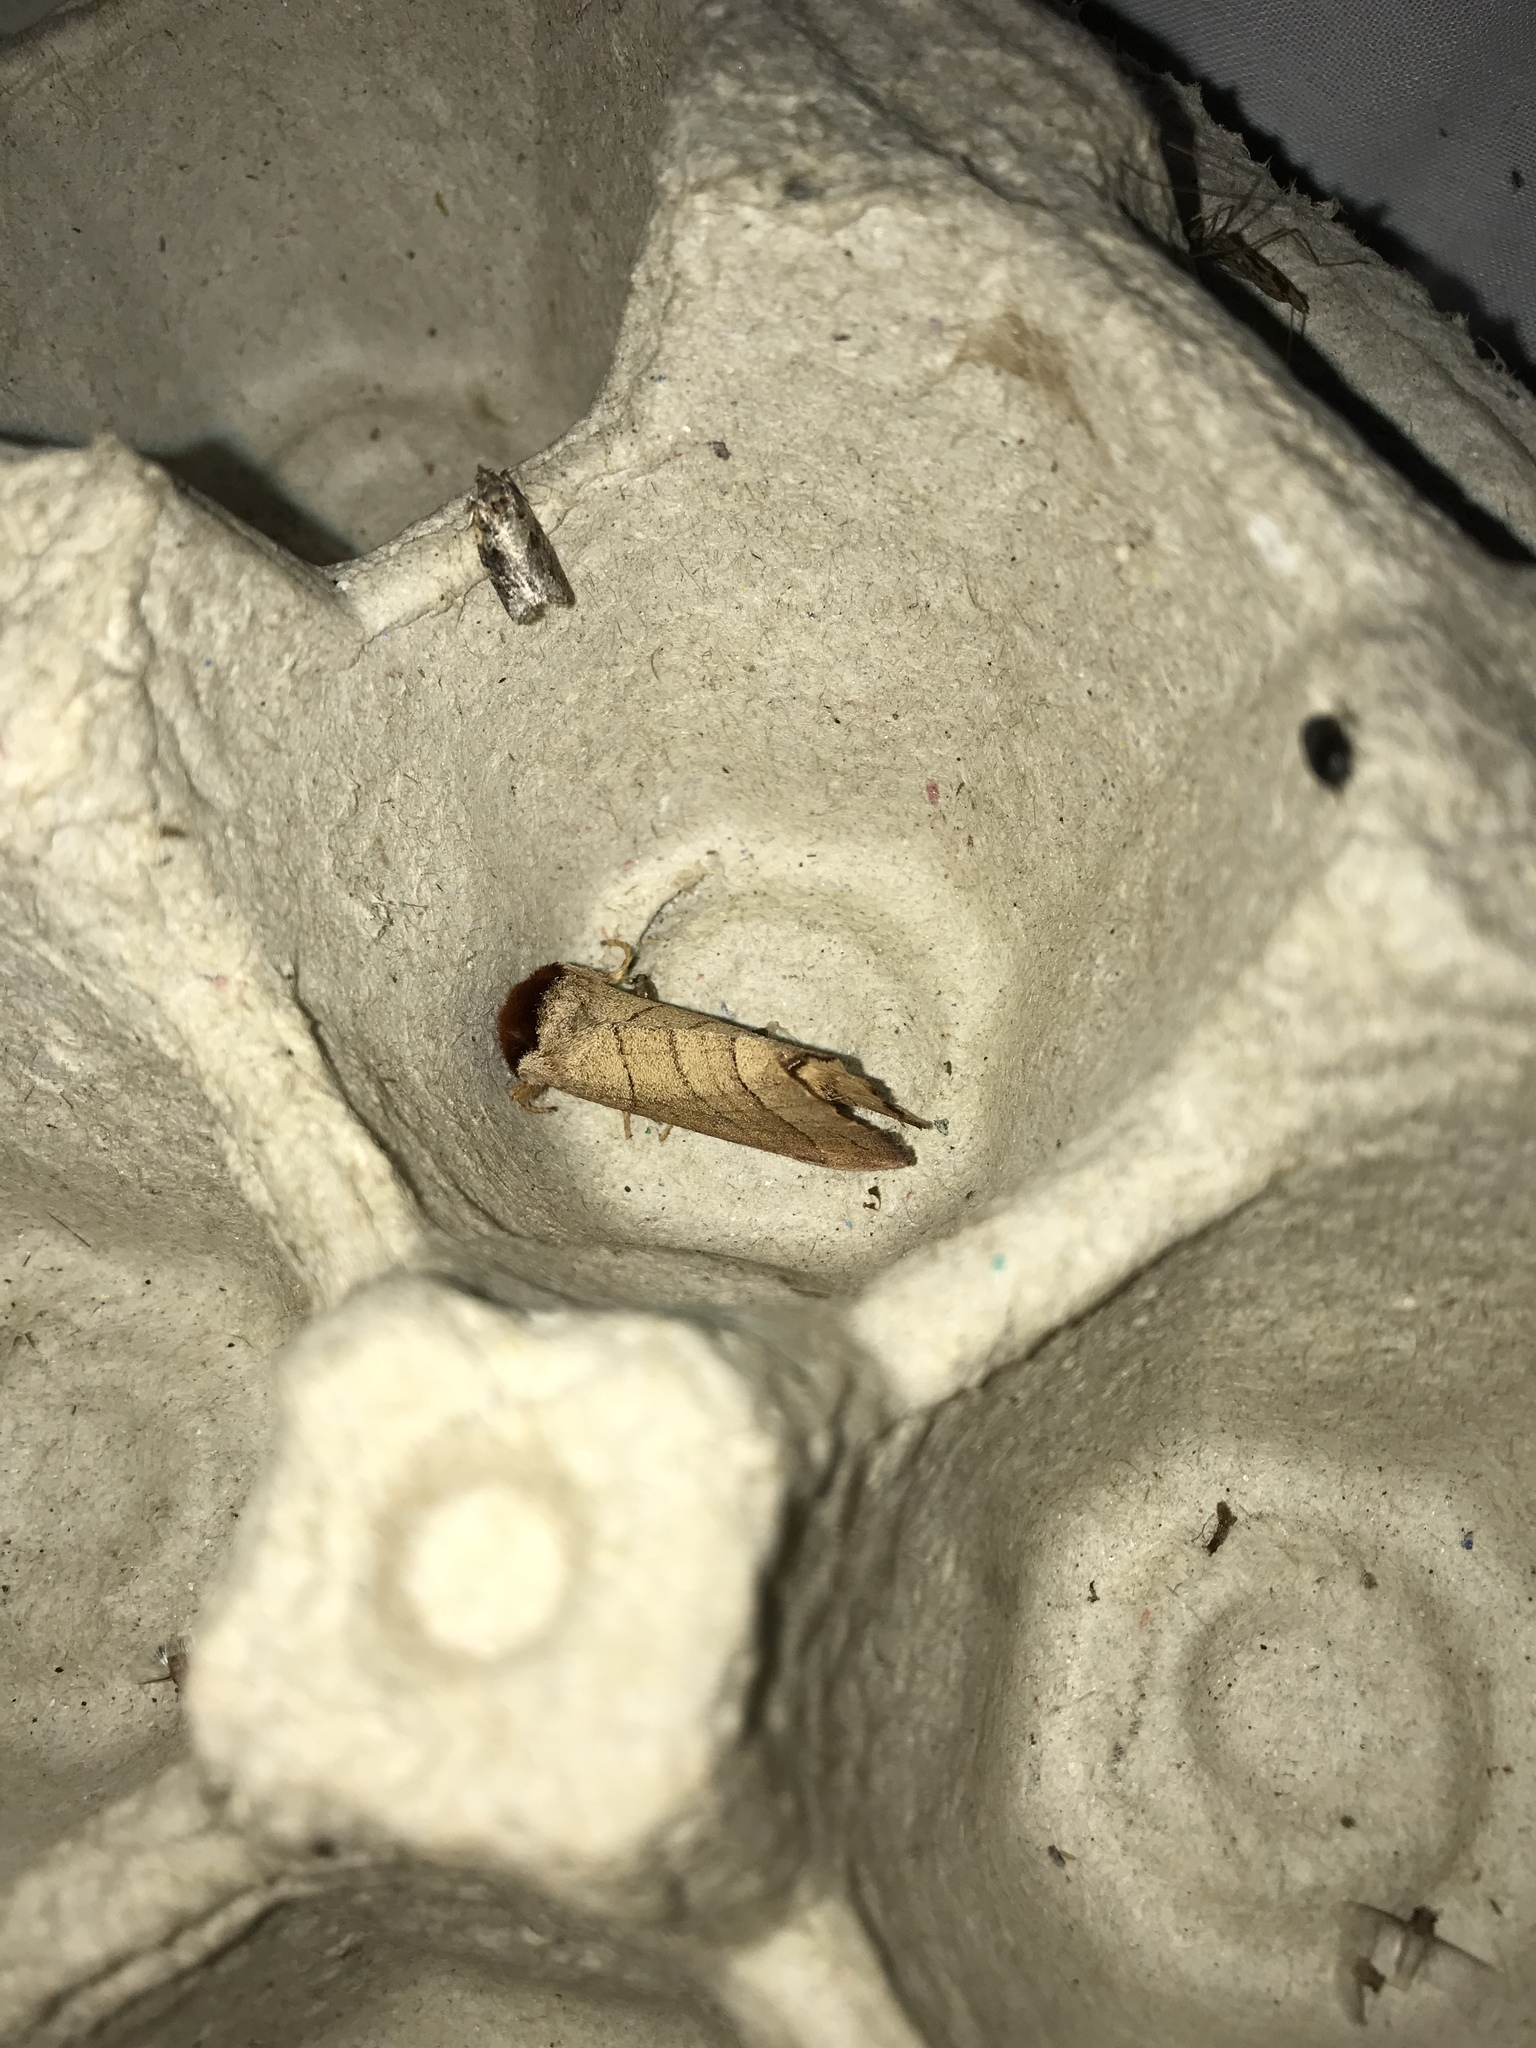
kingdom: Animalia
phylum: Arthropoda
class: Insecta
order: Lepidoptera
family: Notodontidae
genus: Datana
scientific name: Datana ministra
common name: Yellow-necked caterpillar moth
